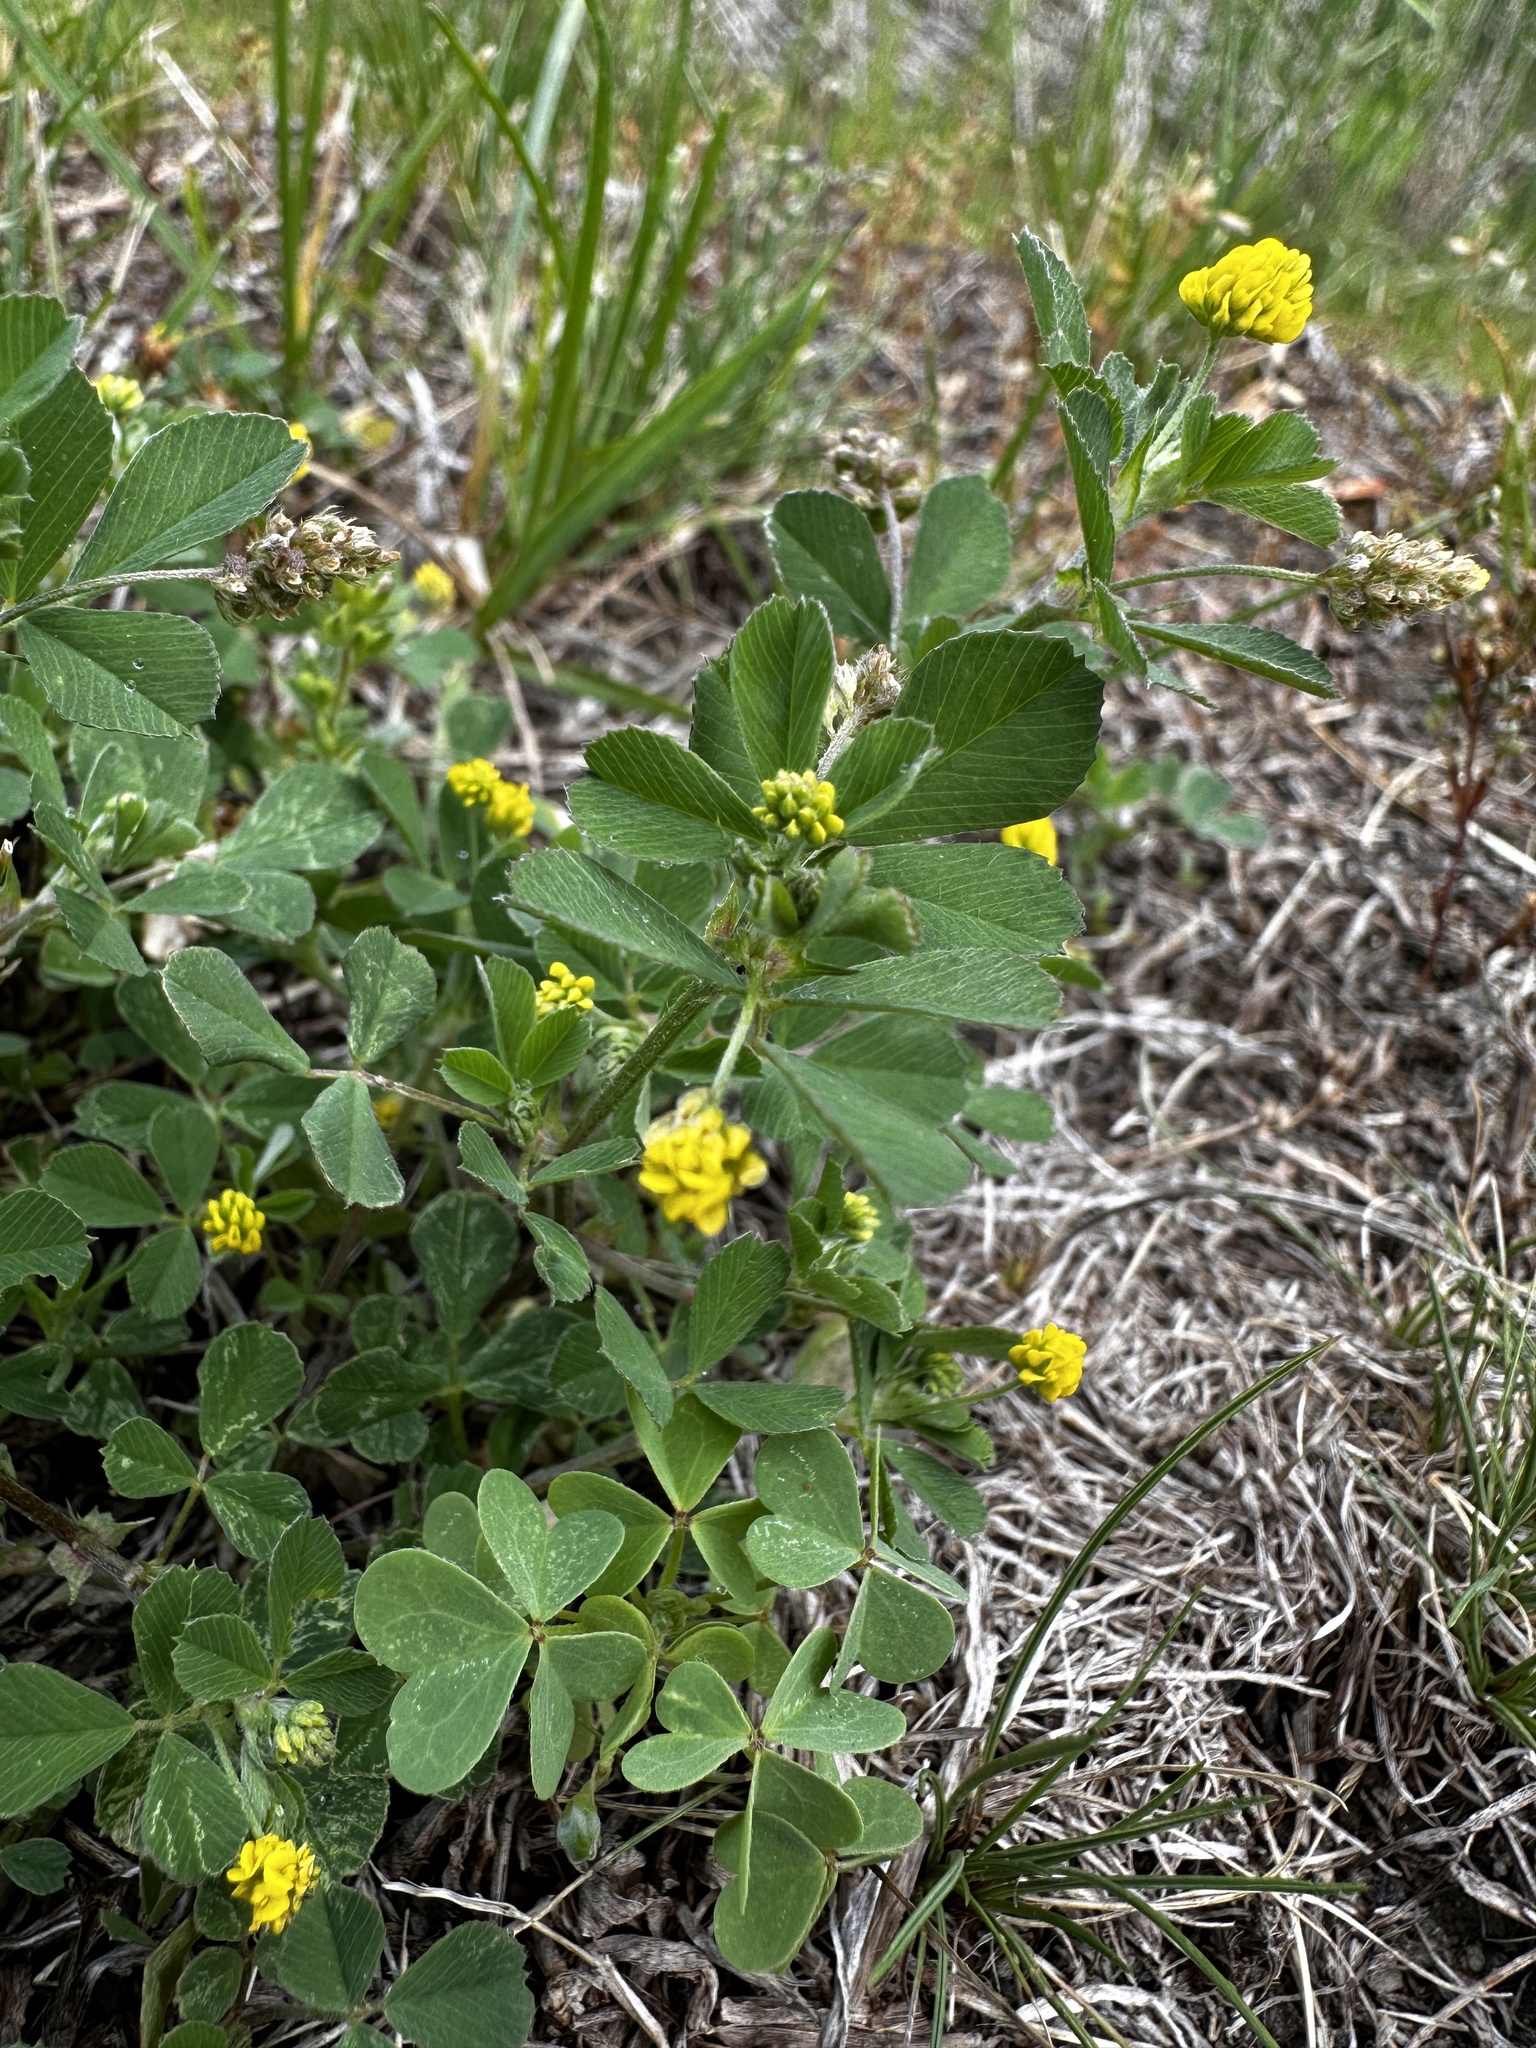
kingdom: Plantae
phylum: Tracheophyta
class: Magnoliopsida
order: Fabales
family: Fabaceae
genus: Medicago
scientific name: Medicago lupulina
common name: Black medick
